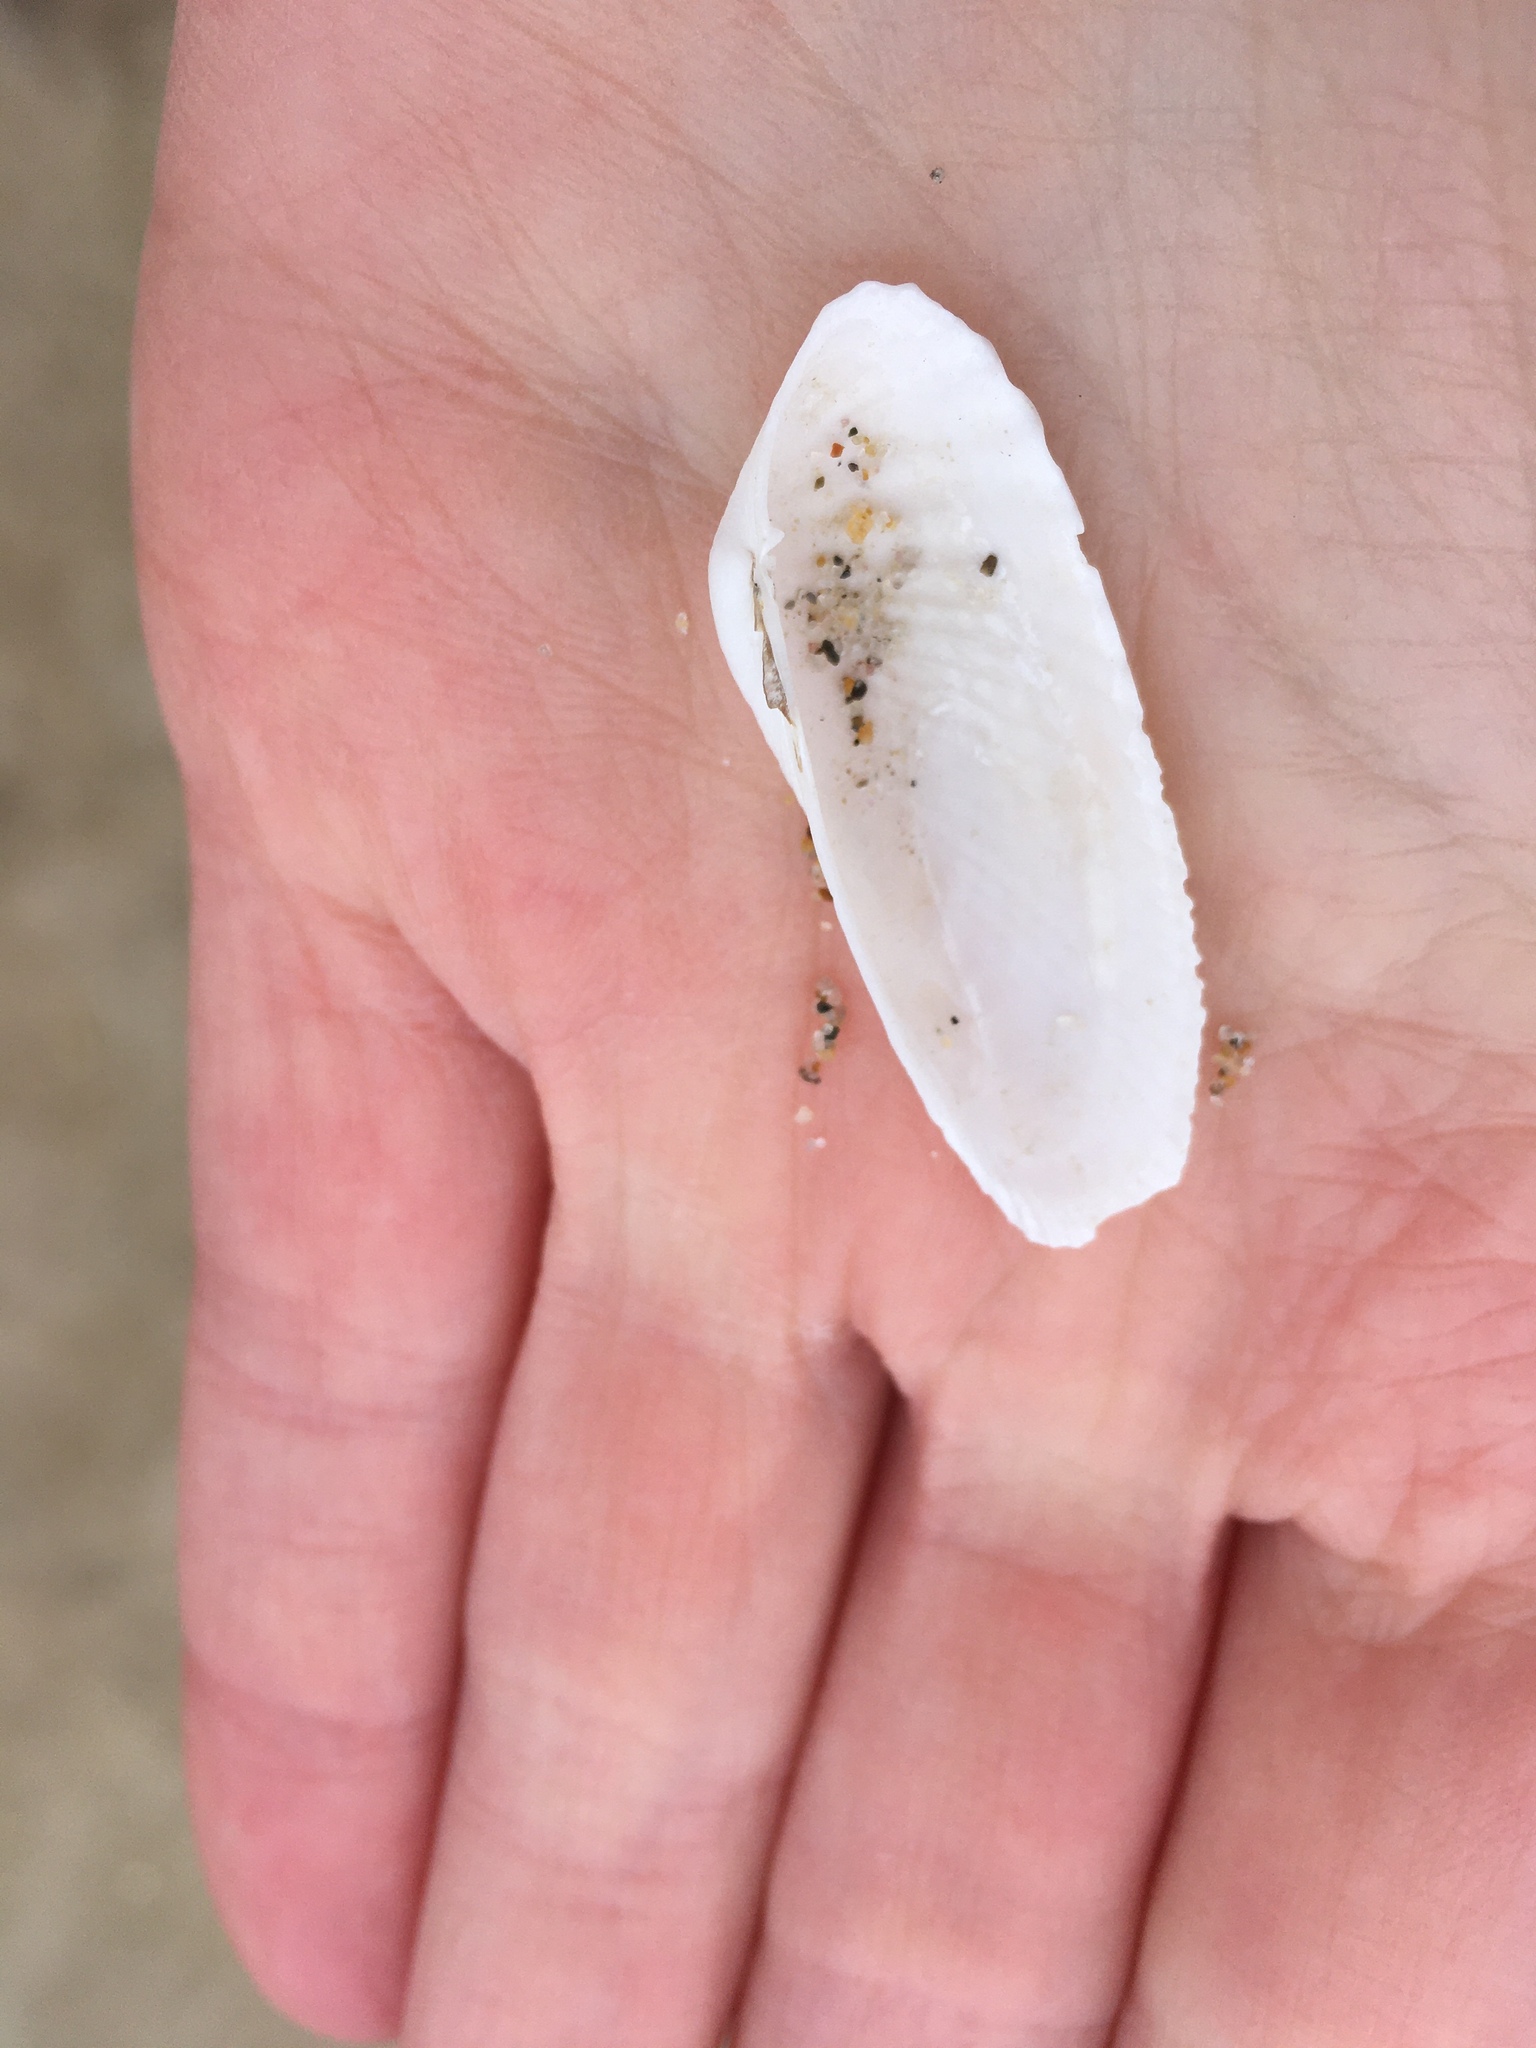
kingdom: Animalia
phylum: Mollusca
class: Bivalvia
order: Venerida
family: Veneridae
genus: Petricolaria
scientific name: Petricolaria pholadiformis
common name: American piddock
